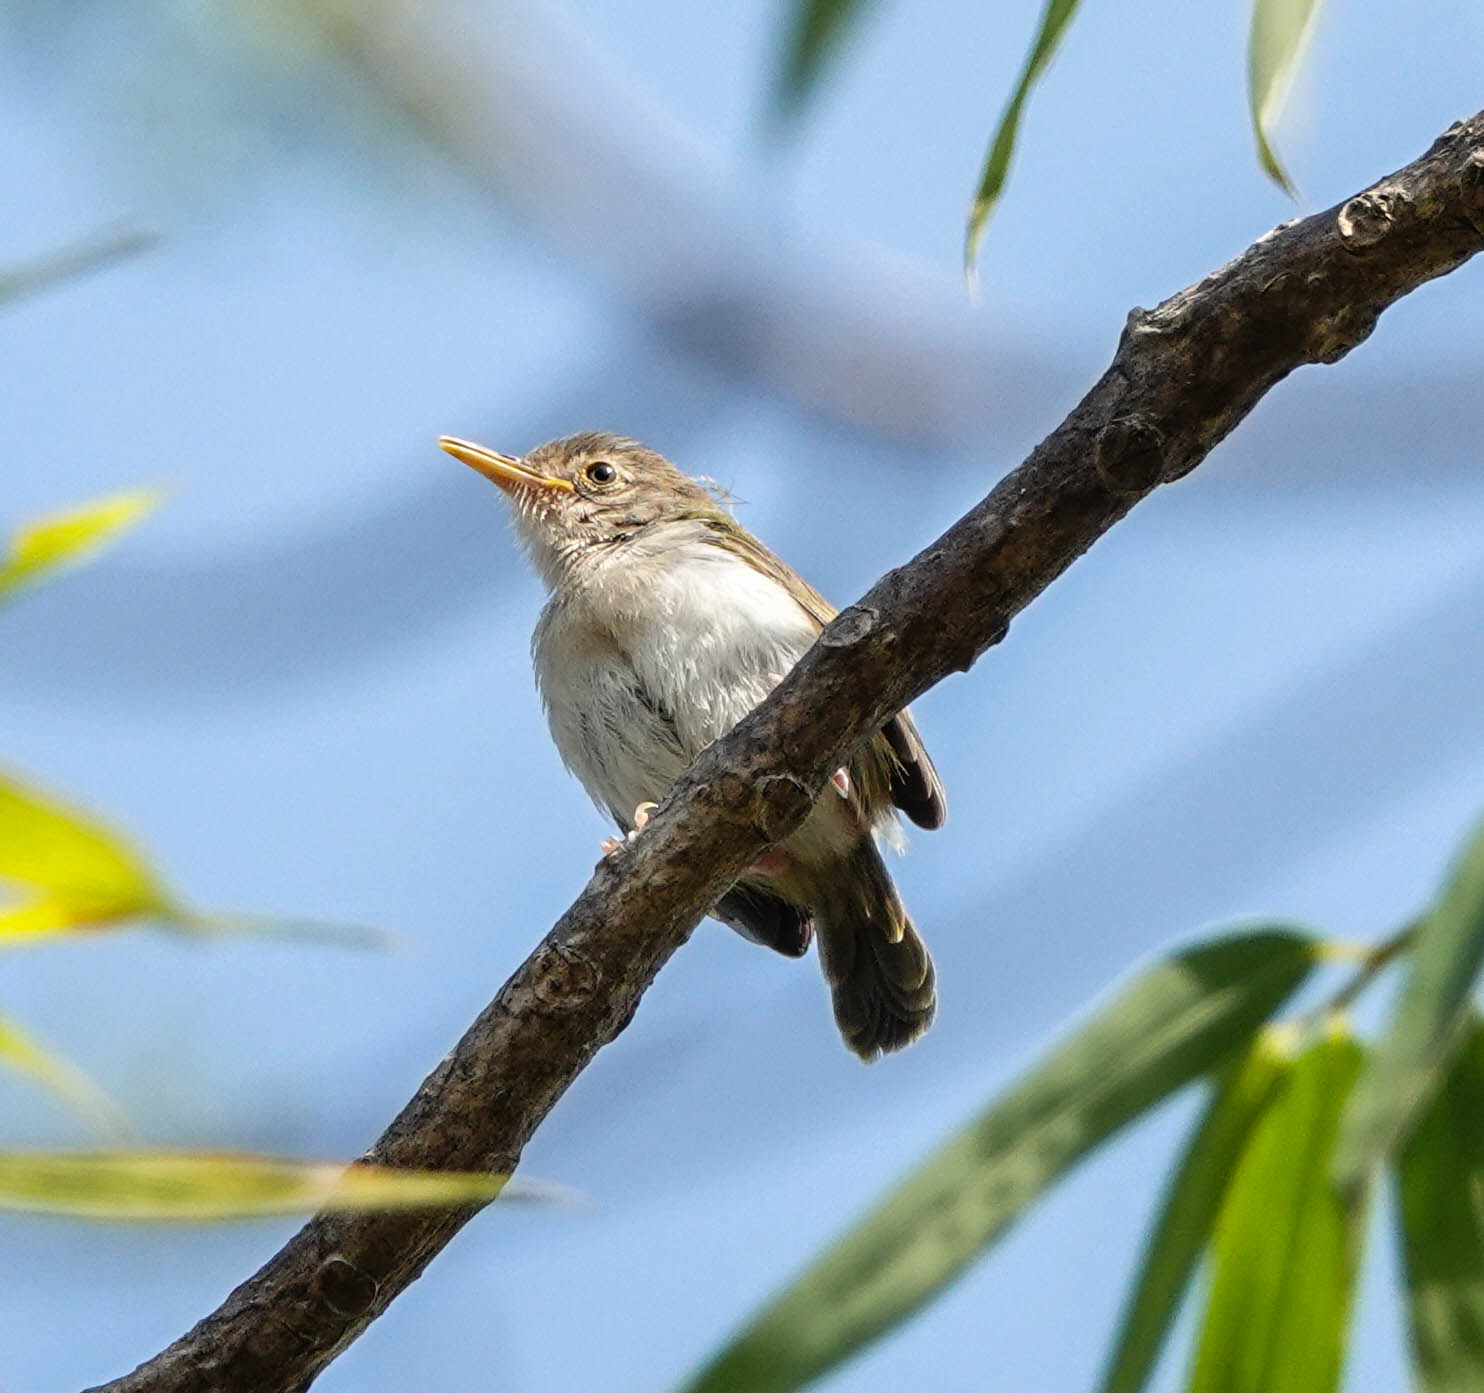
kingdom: Animalia
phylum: Chordata
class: Aves
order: Passeriformes
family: Cisticolidae
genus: Orthotomus
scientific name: Orthotomus sutorius
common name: Common tailorbird
